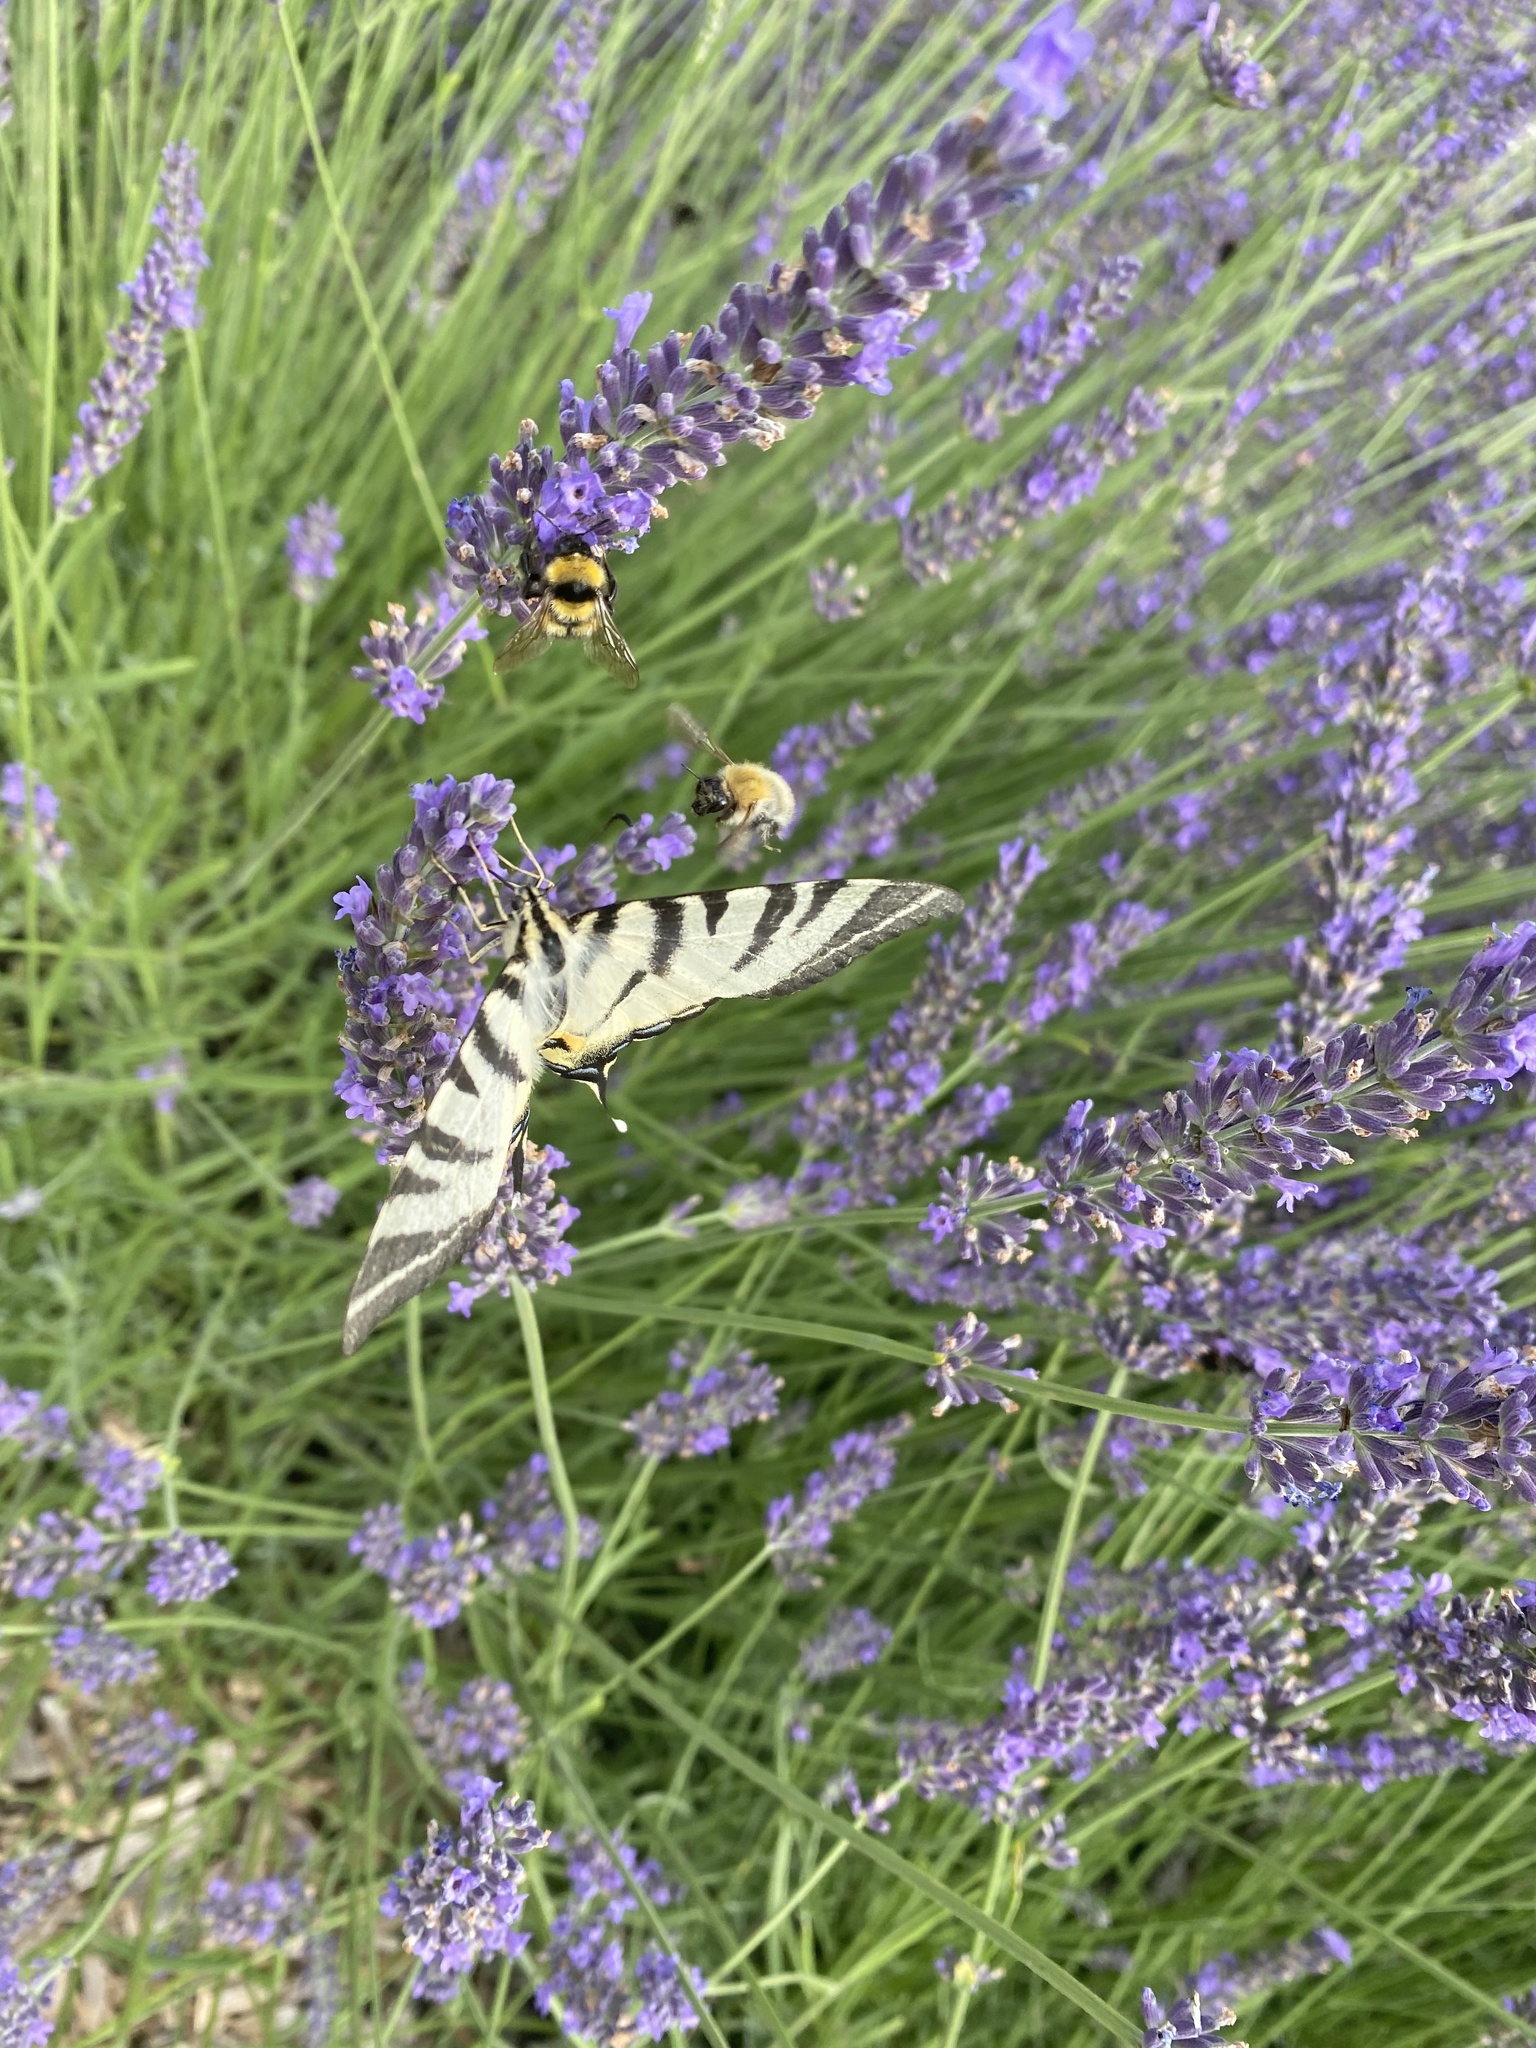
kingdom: Animalia
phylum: Arthropoda
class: Insecta
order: Lepidoptera
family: Papilionidae
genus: Iphiclides
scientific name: Iphiclides podalirius
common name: Scarce swallowtail
